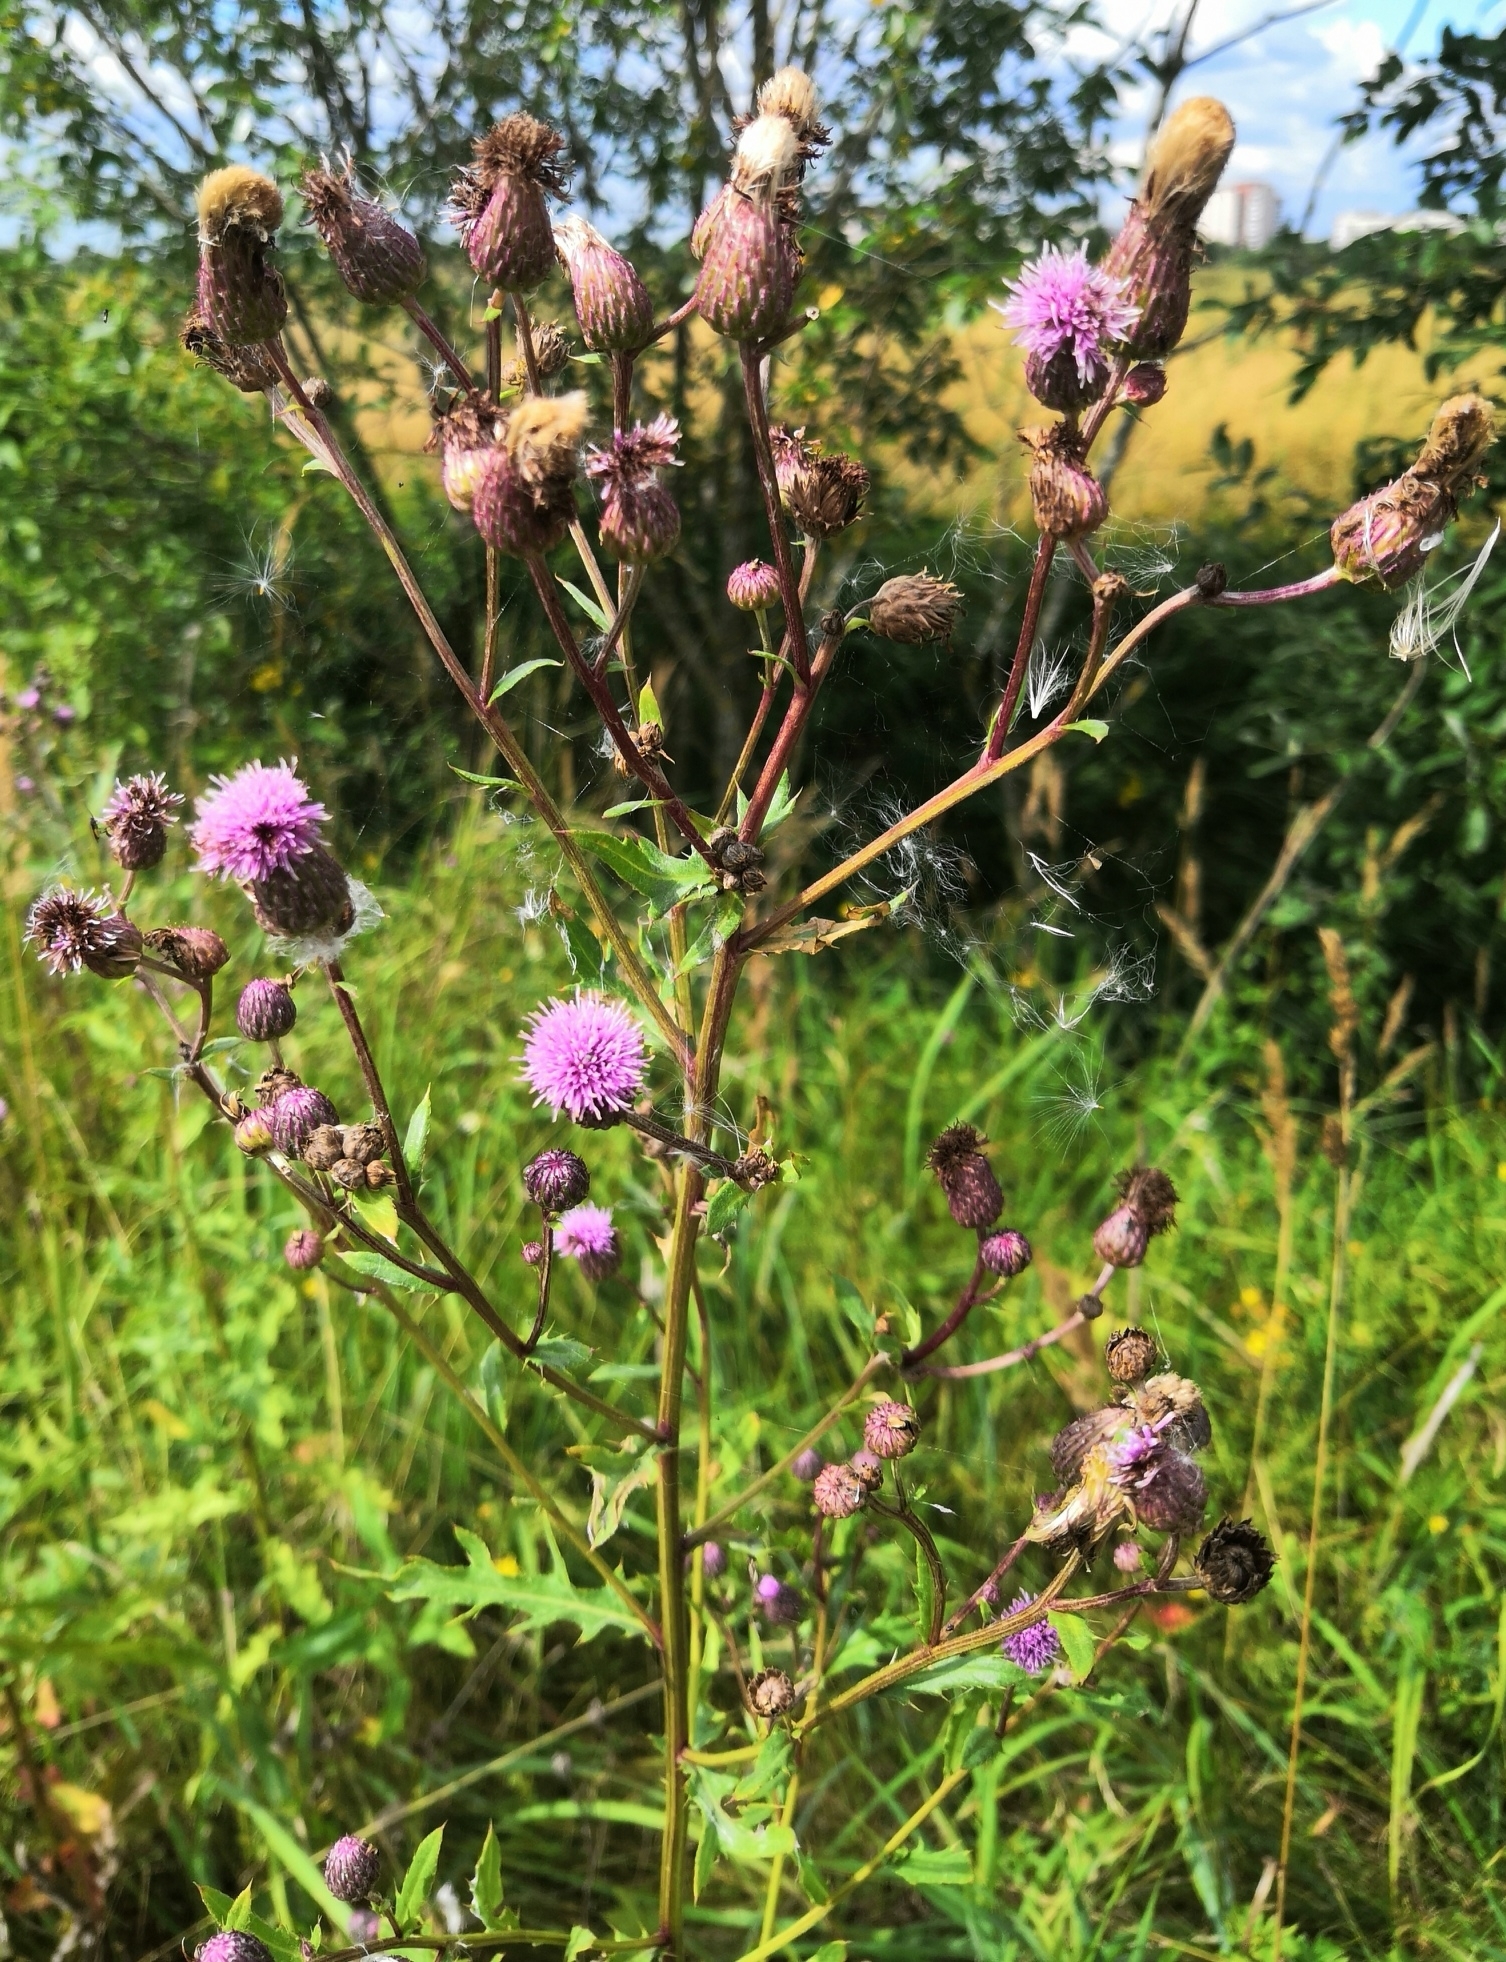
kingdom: Plantae
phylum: Tracheophyta
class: Magnoliopsida
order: Asterales
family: Asteraceae
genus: Cirsium
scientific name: Cirsium arvense
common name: Creeping thistle
